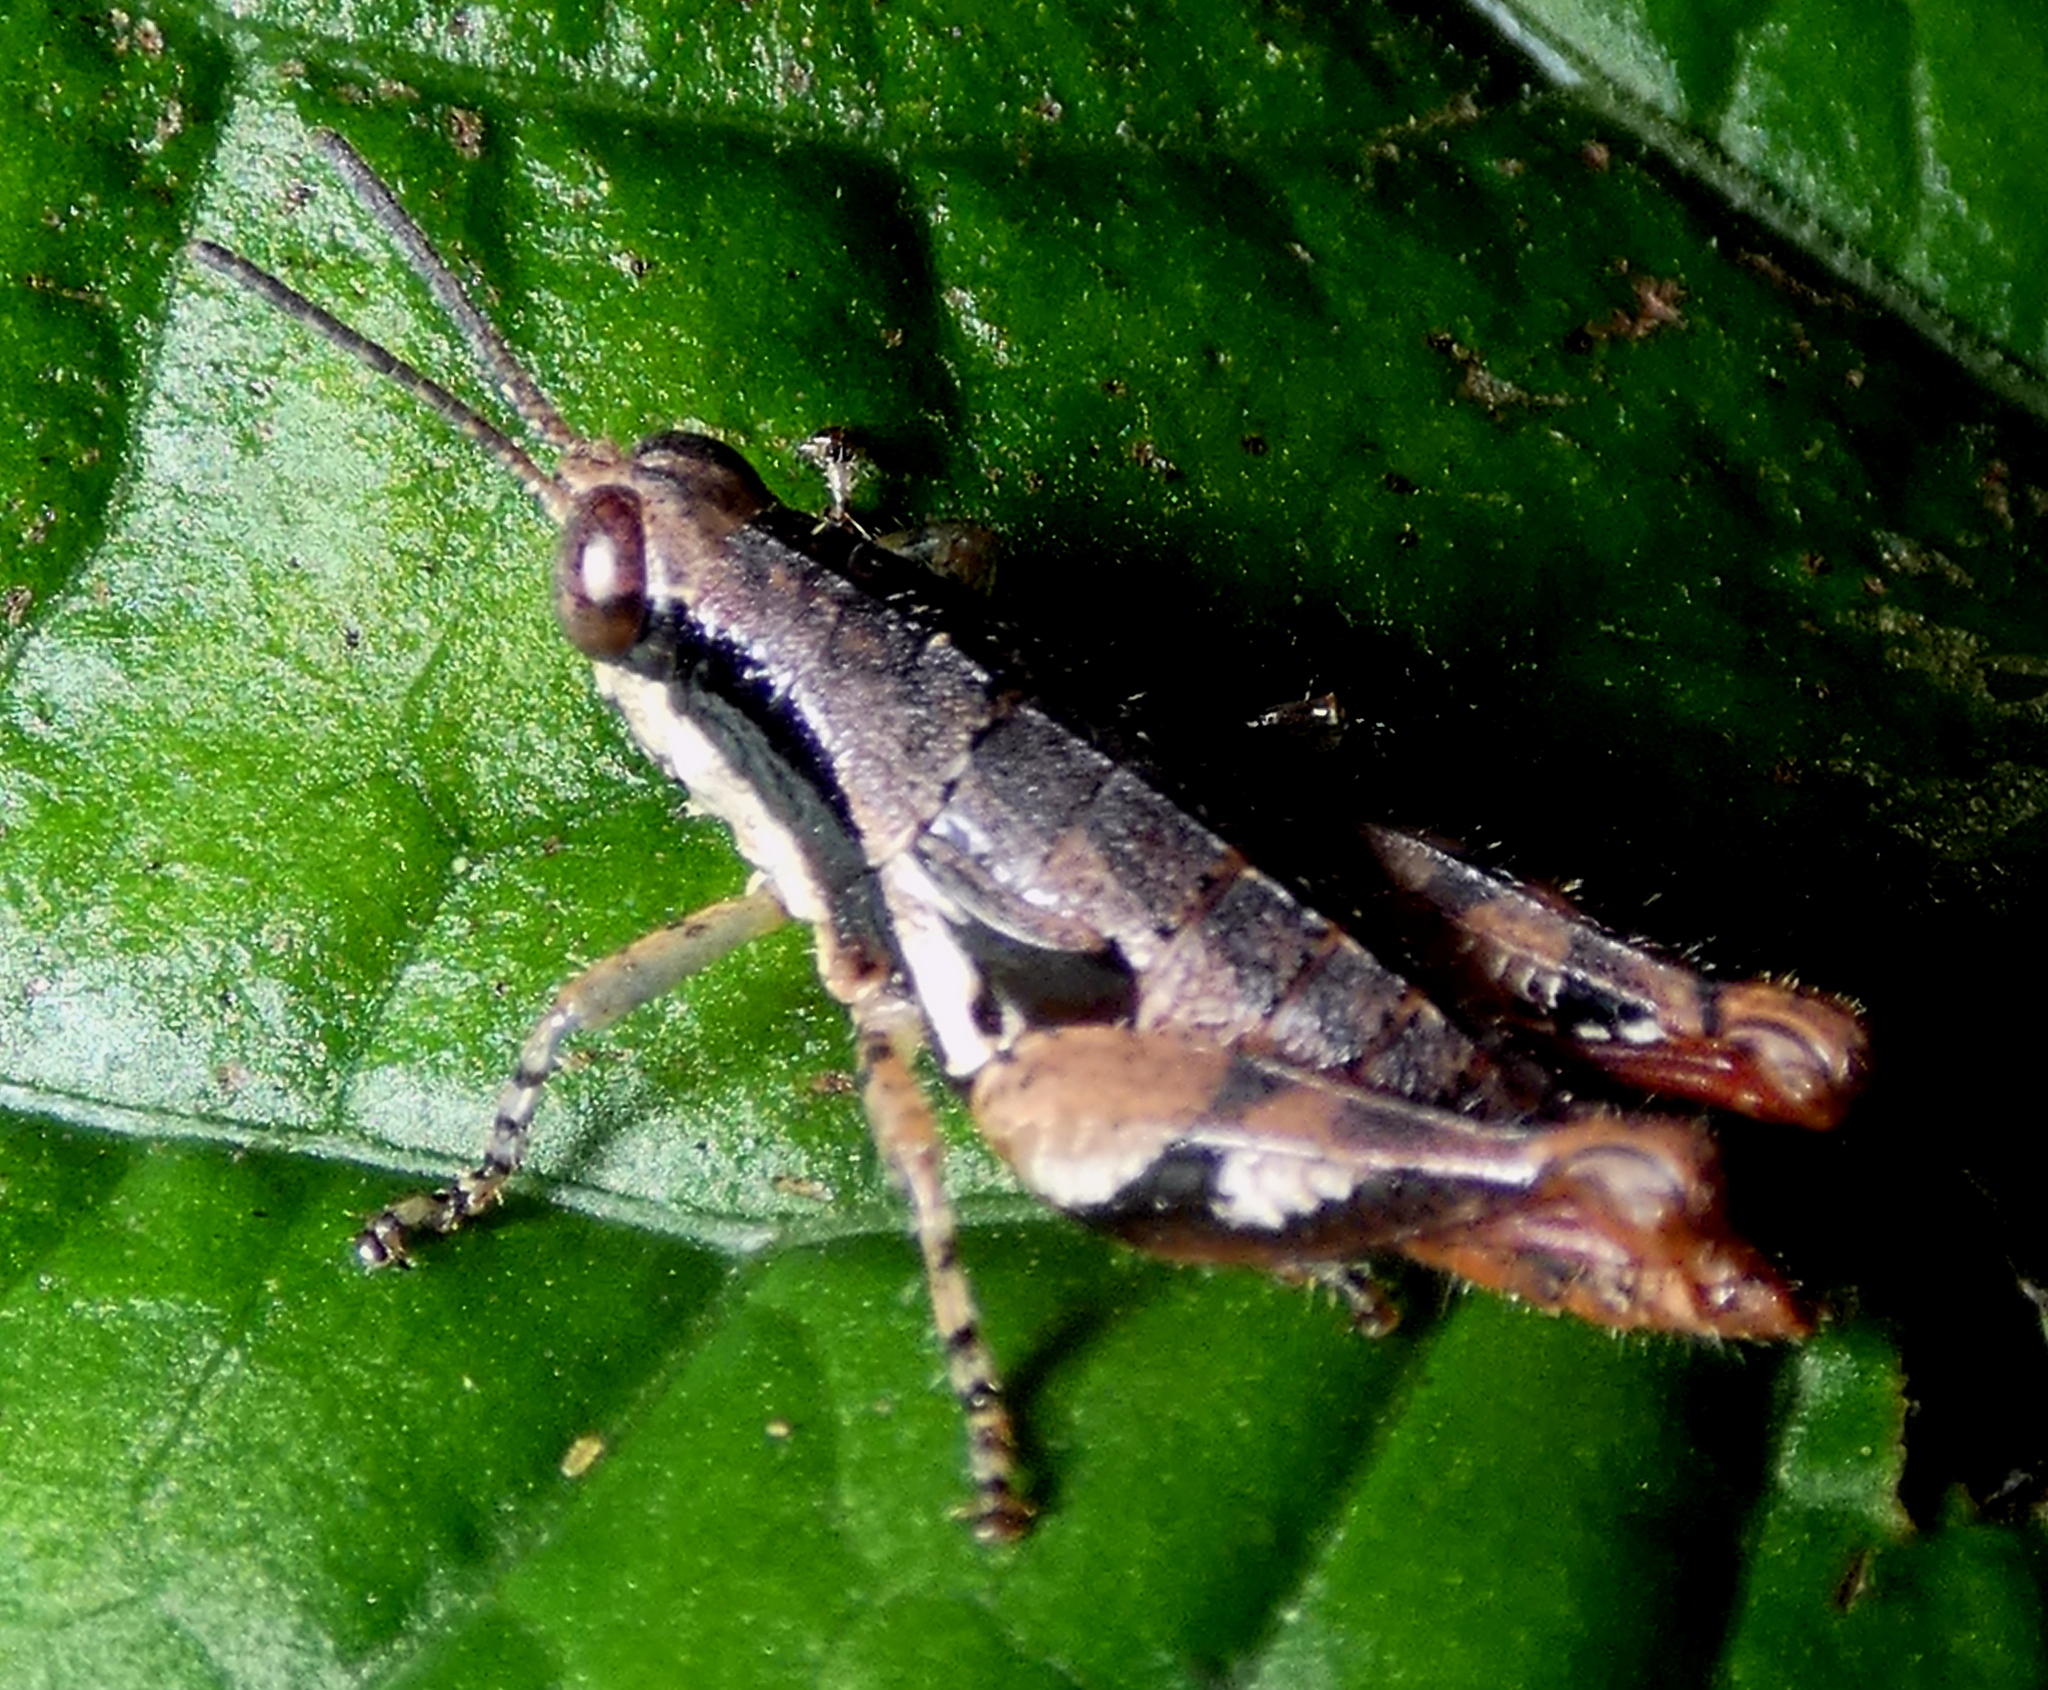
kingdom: Animalia
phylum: Arthropoda
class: Insecta
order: Orthoptera
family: Acrididae
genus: Eujivarus
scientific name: Eujivarus meridionalis
